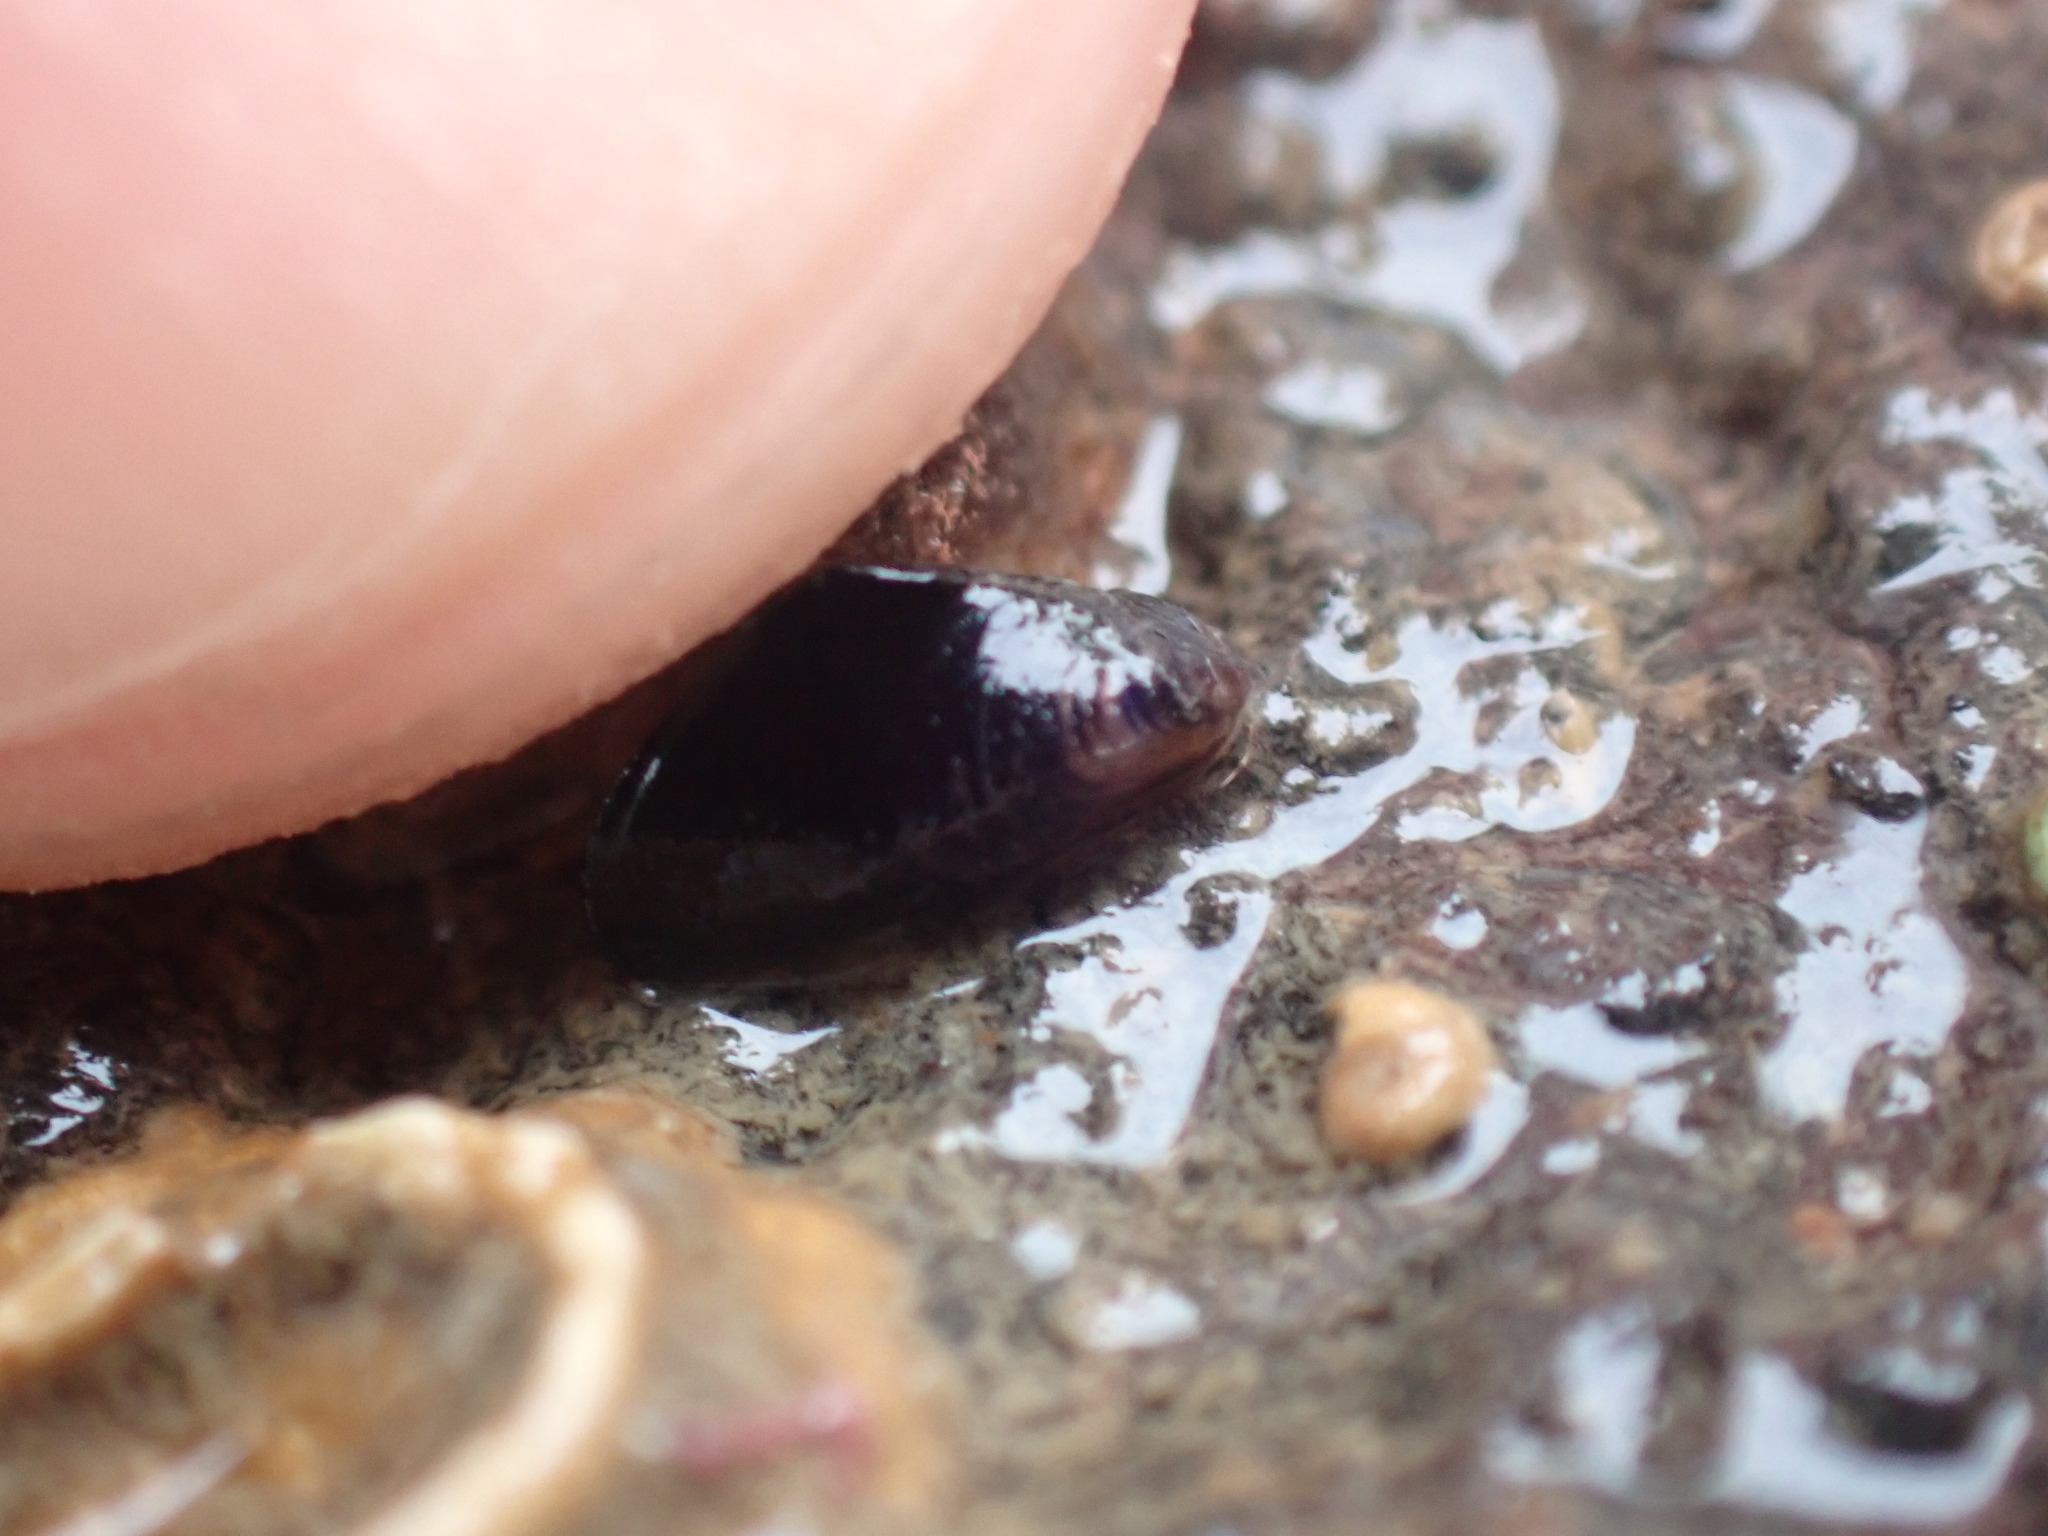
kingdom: Animalia
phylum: Mollusca
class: Bivalvia
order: Mytilida
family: Mytilidae
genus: Xenostrobus
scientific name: Xenostrobus neozelanicus
